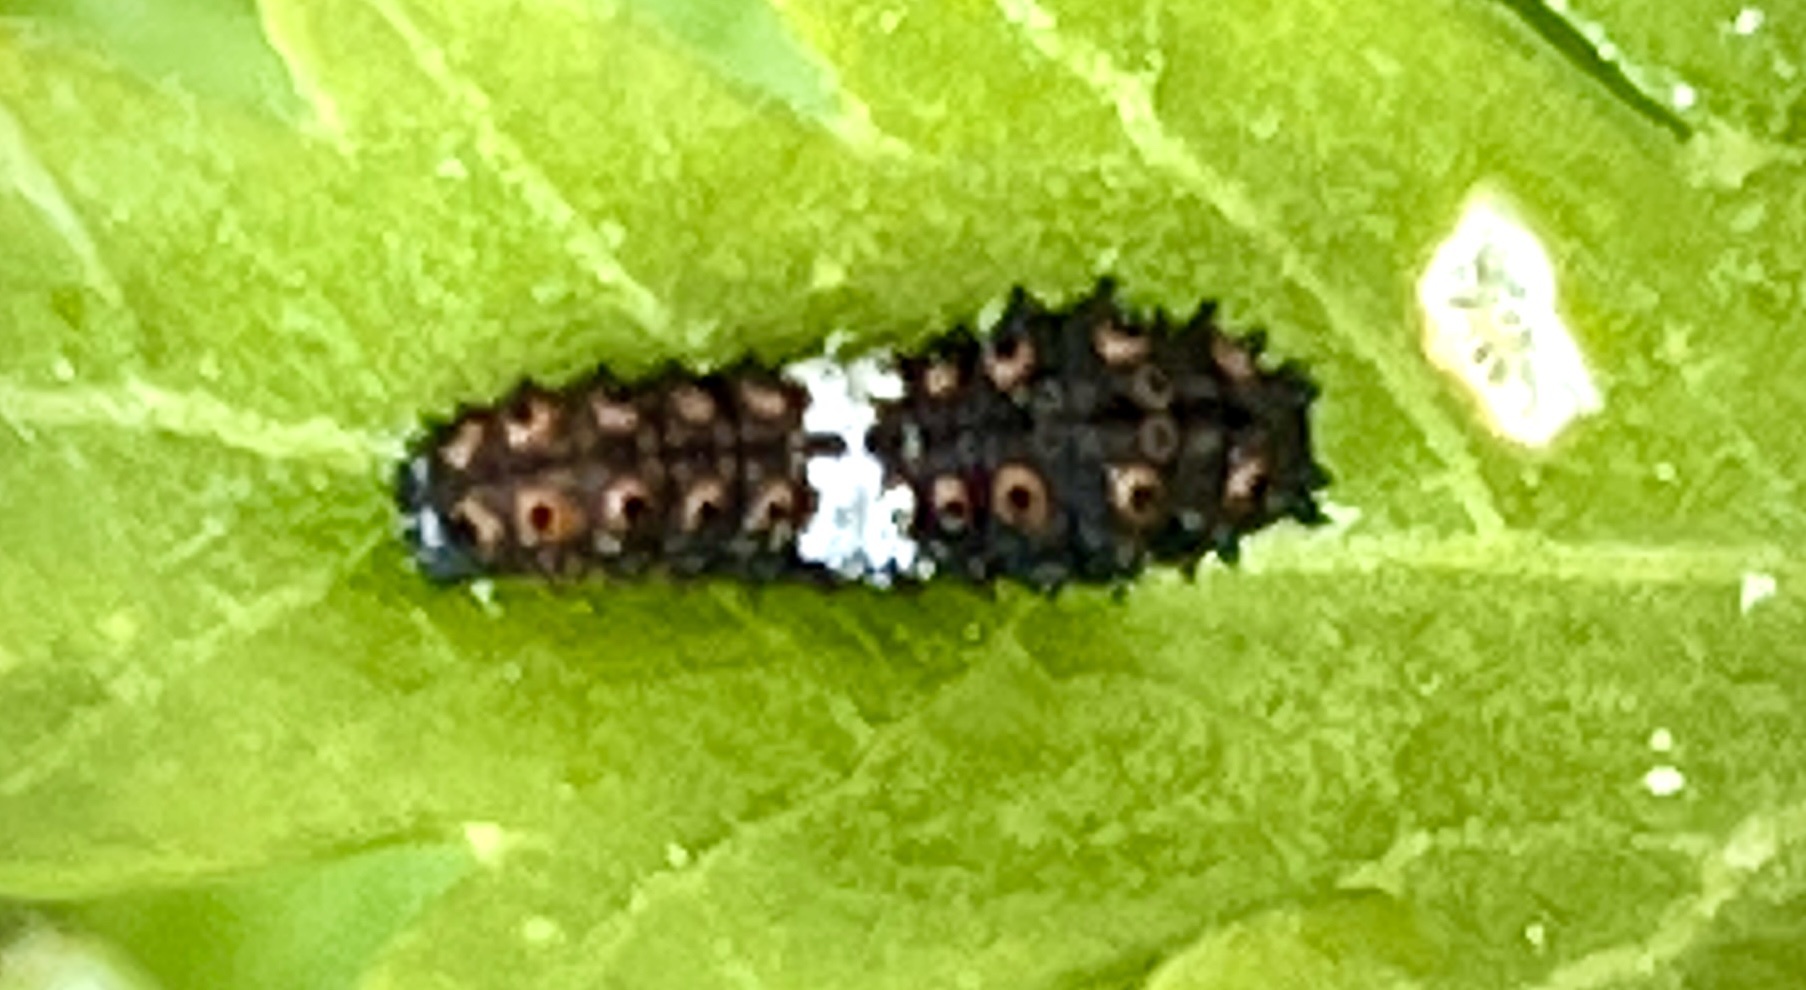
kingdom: Animalia
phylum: Arthropoda
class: Insecta
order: Lepidoptera
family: Papilionidae
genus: Papilio
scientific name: Papilio polyxenes
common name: Black swallowtail
